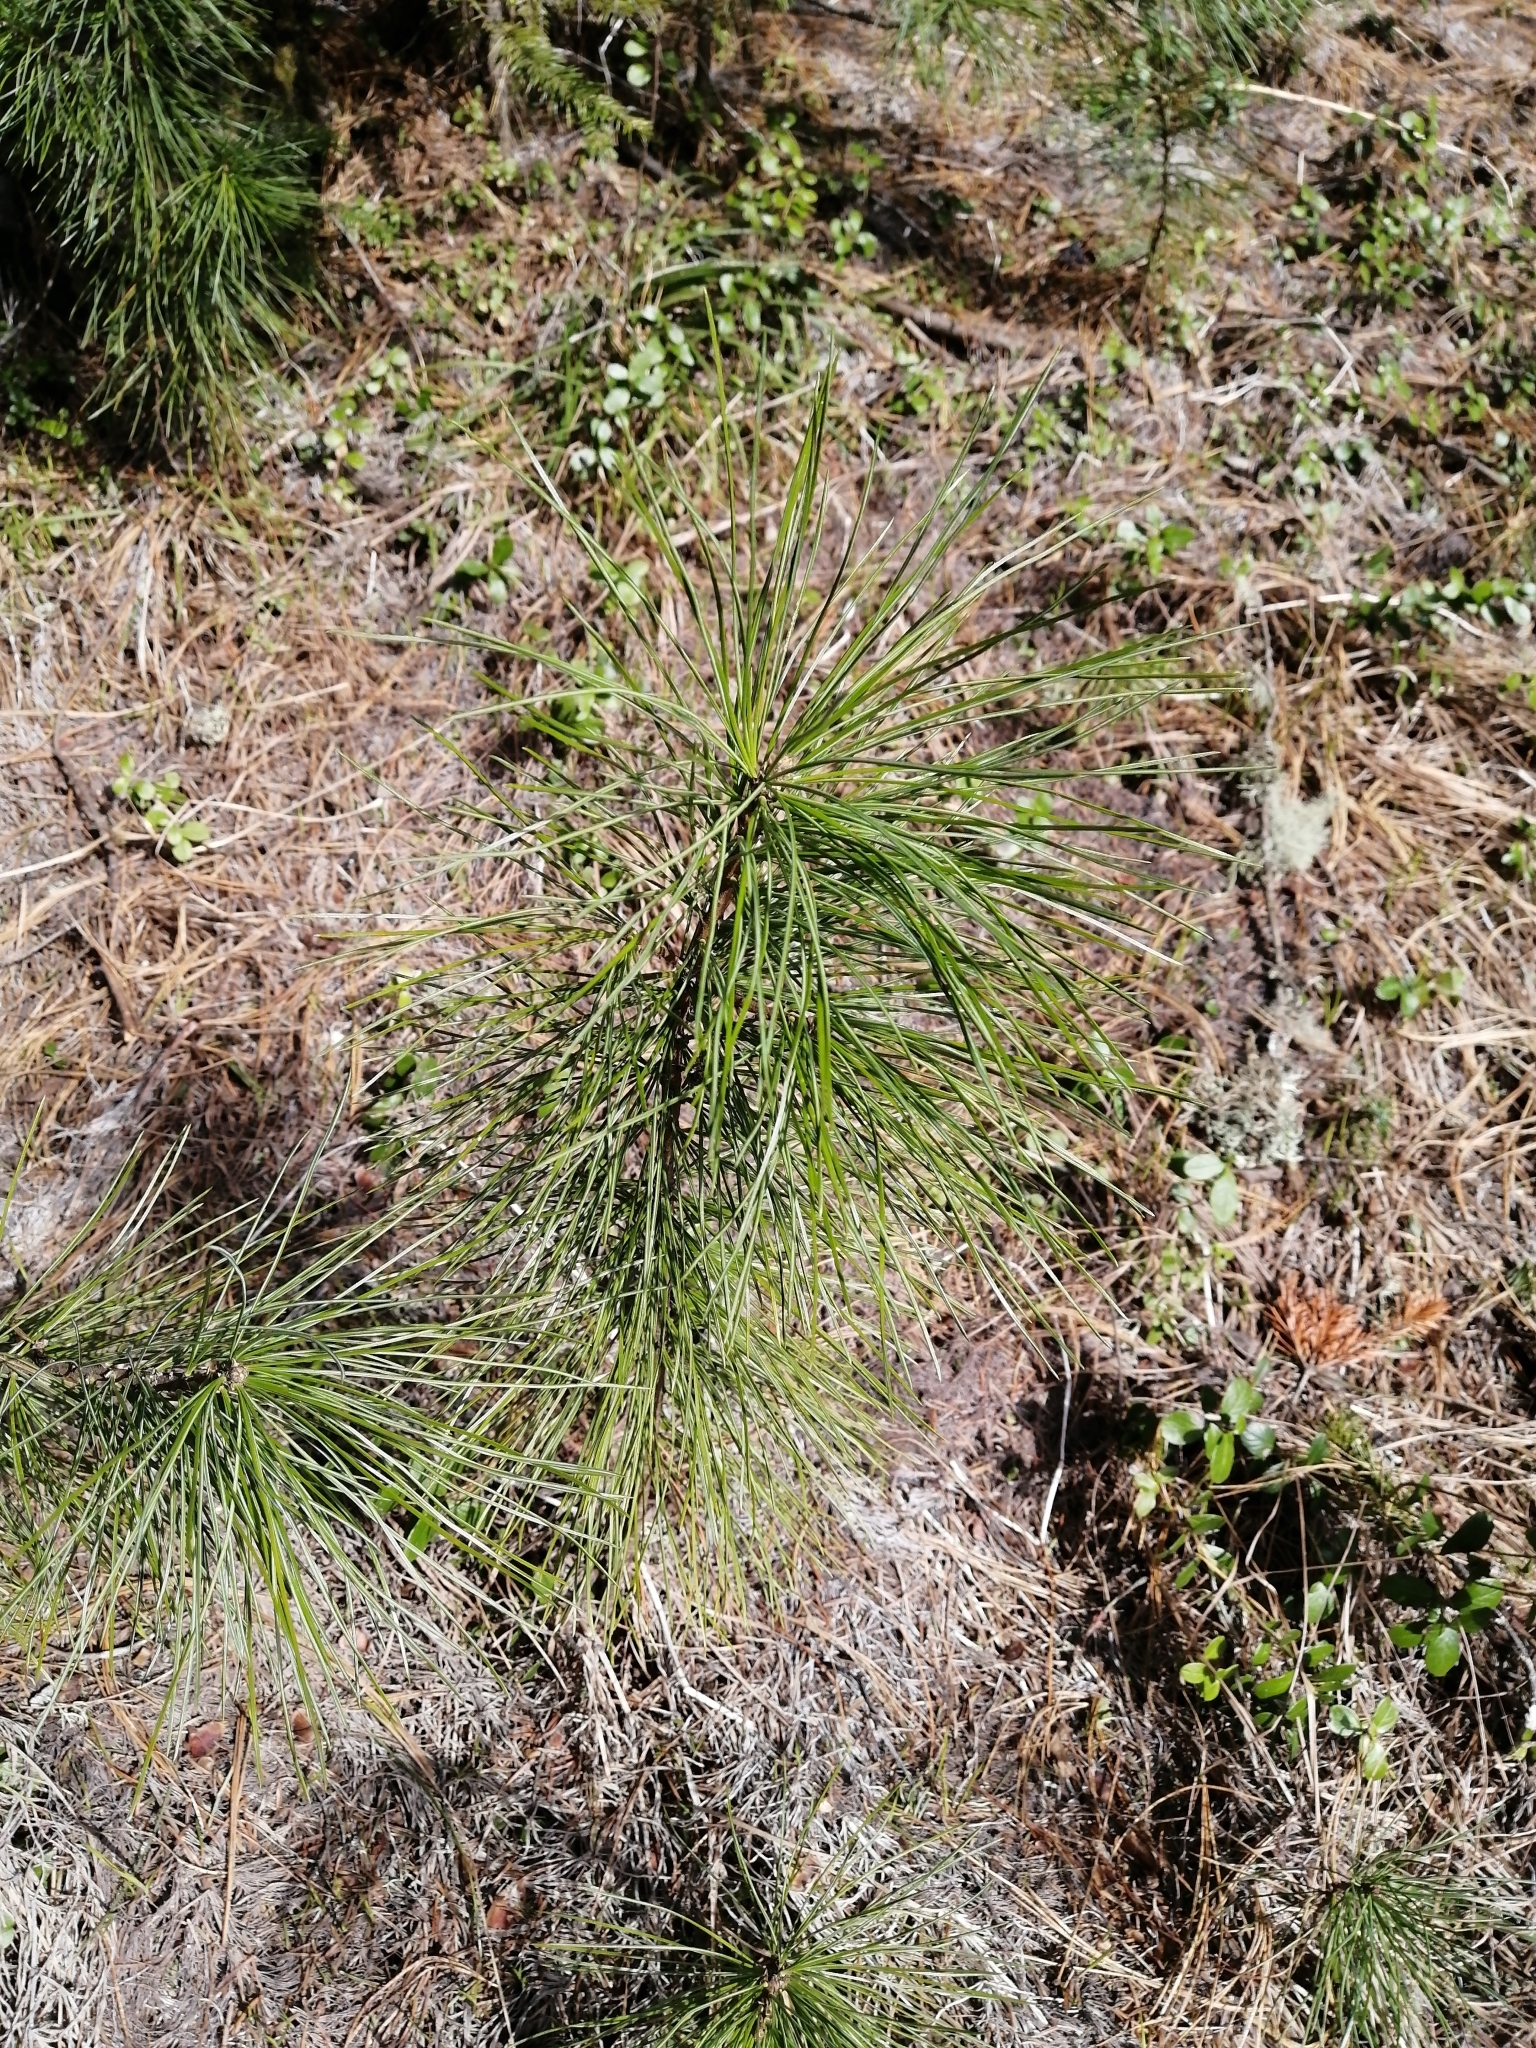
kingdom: Plantae
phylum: Tracheophyta
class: Pinopsida
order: Pinales
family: Pinaceae
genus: Pinus
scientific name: Pinus sibirica
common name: Siberian pine
